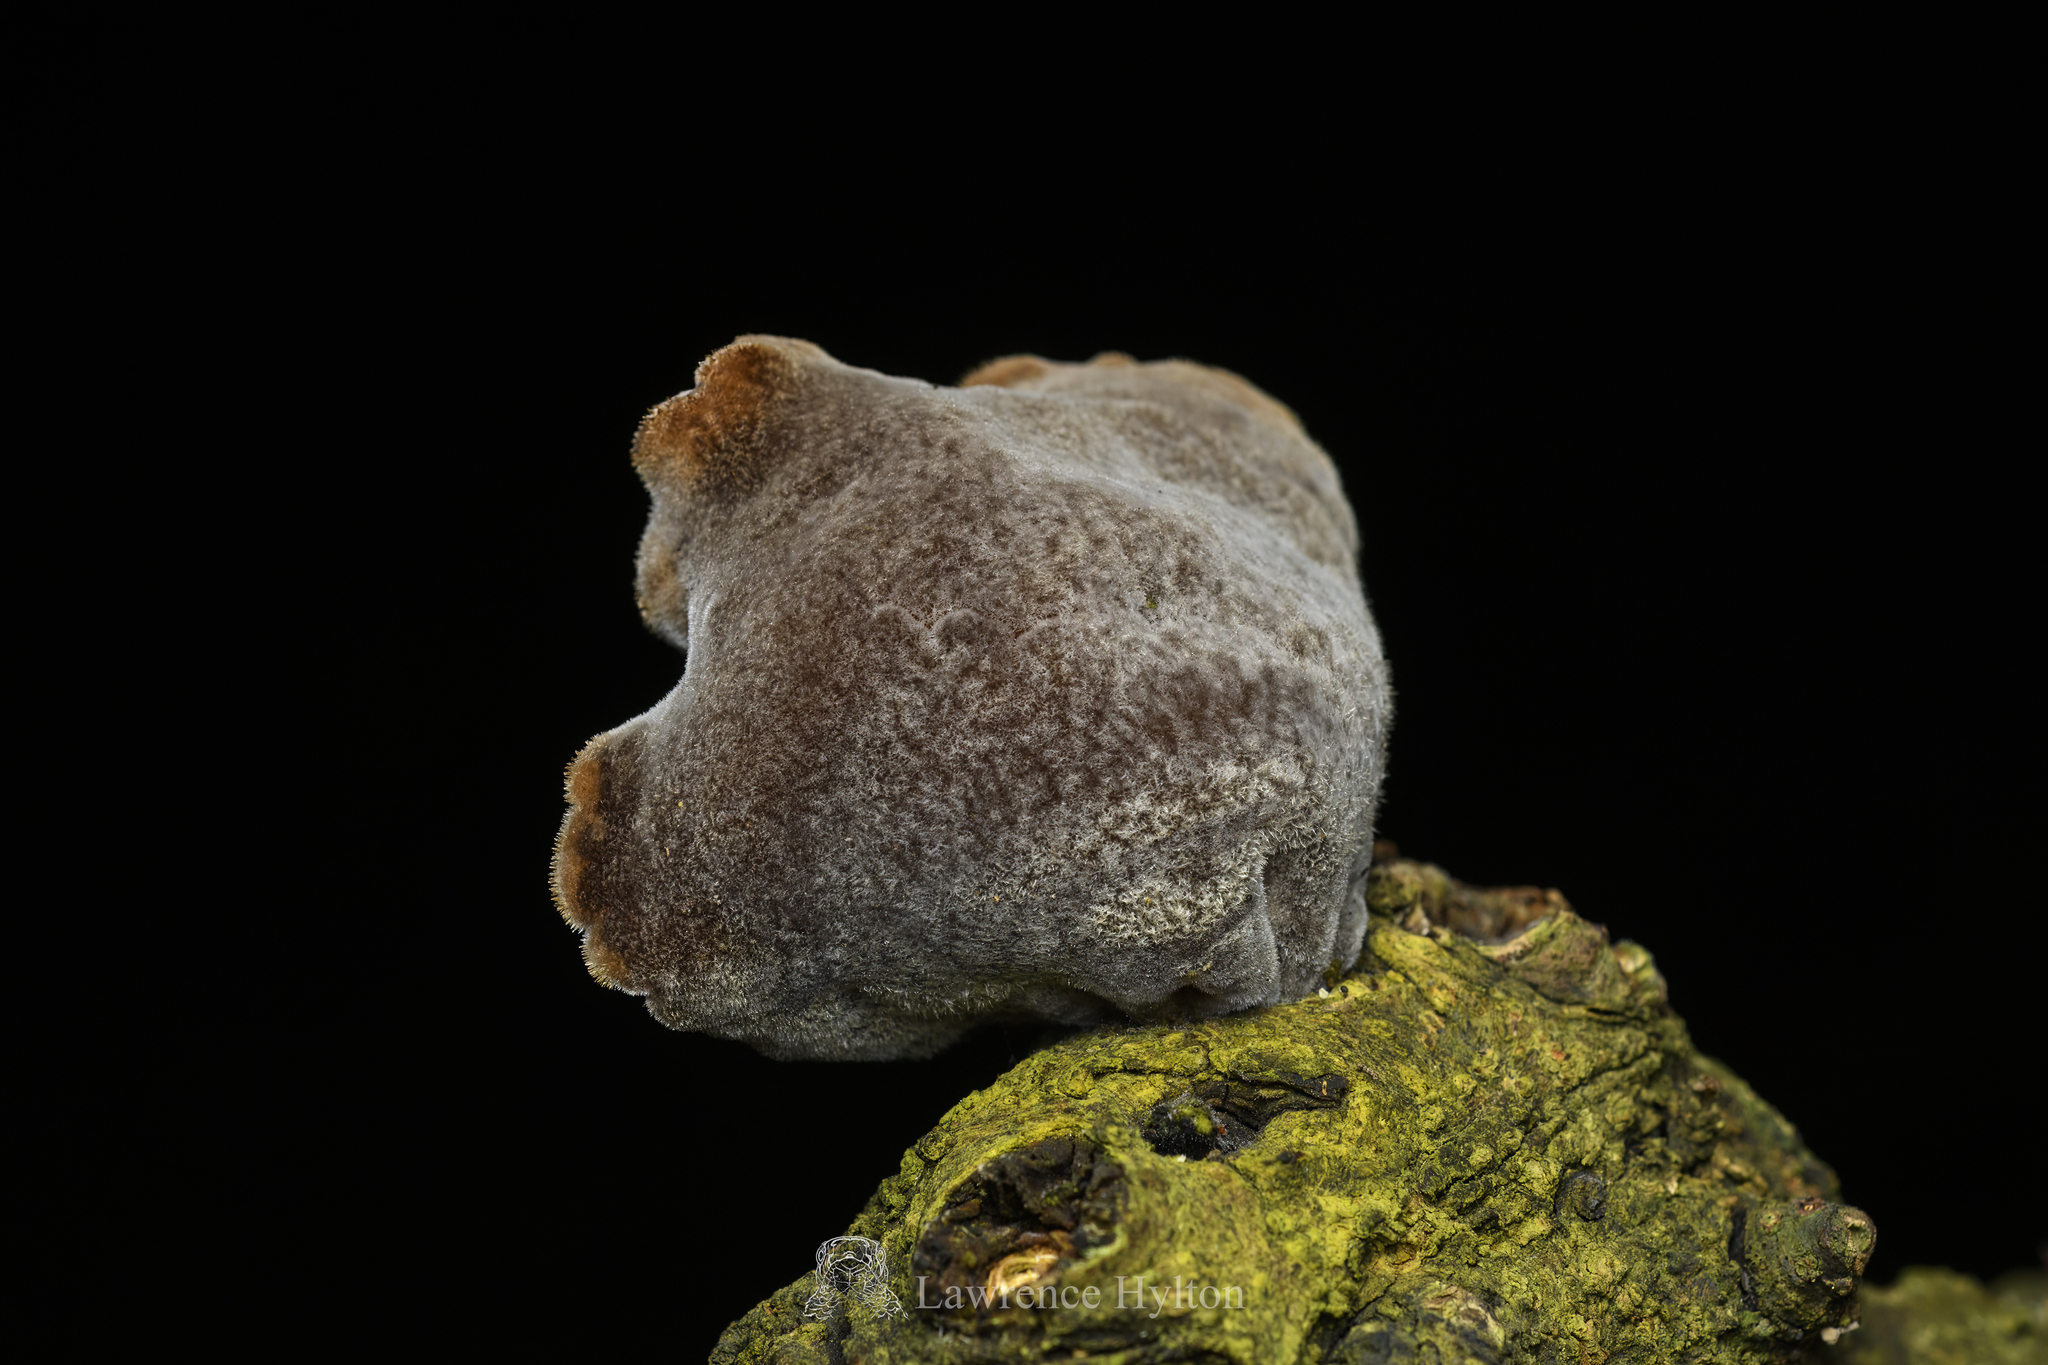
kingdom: Fungi
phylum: Basidiomycota
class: Agaricomycetes
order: Auriculariales
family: Auriculariaceae
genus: Auricularia
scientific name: Auricularia nigricans
